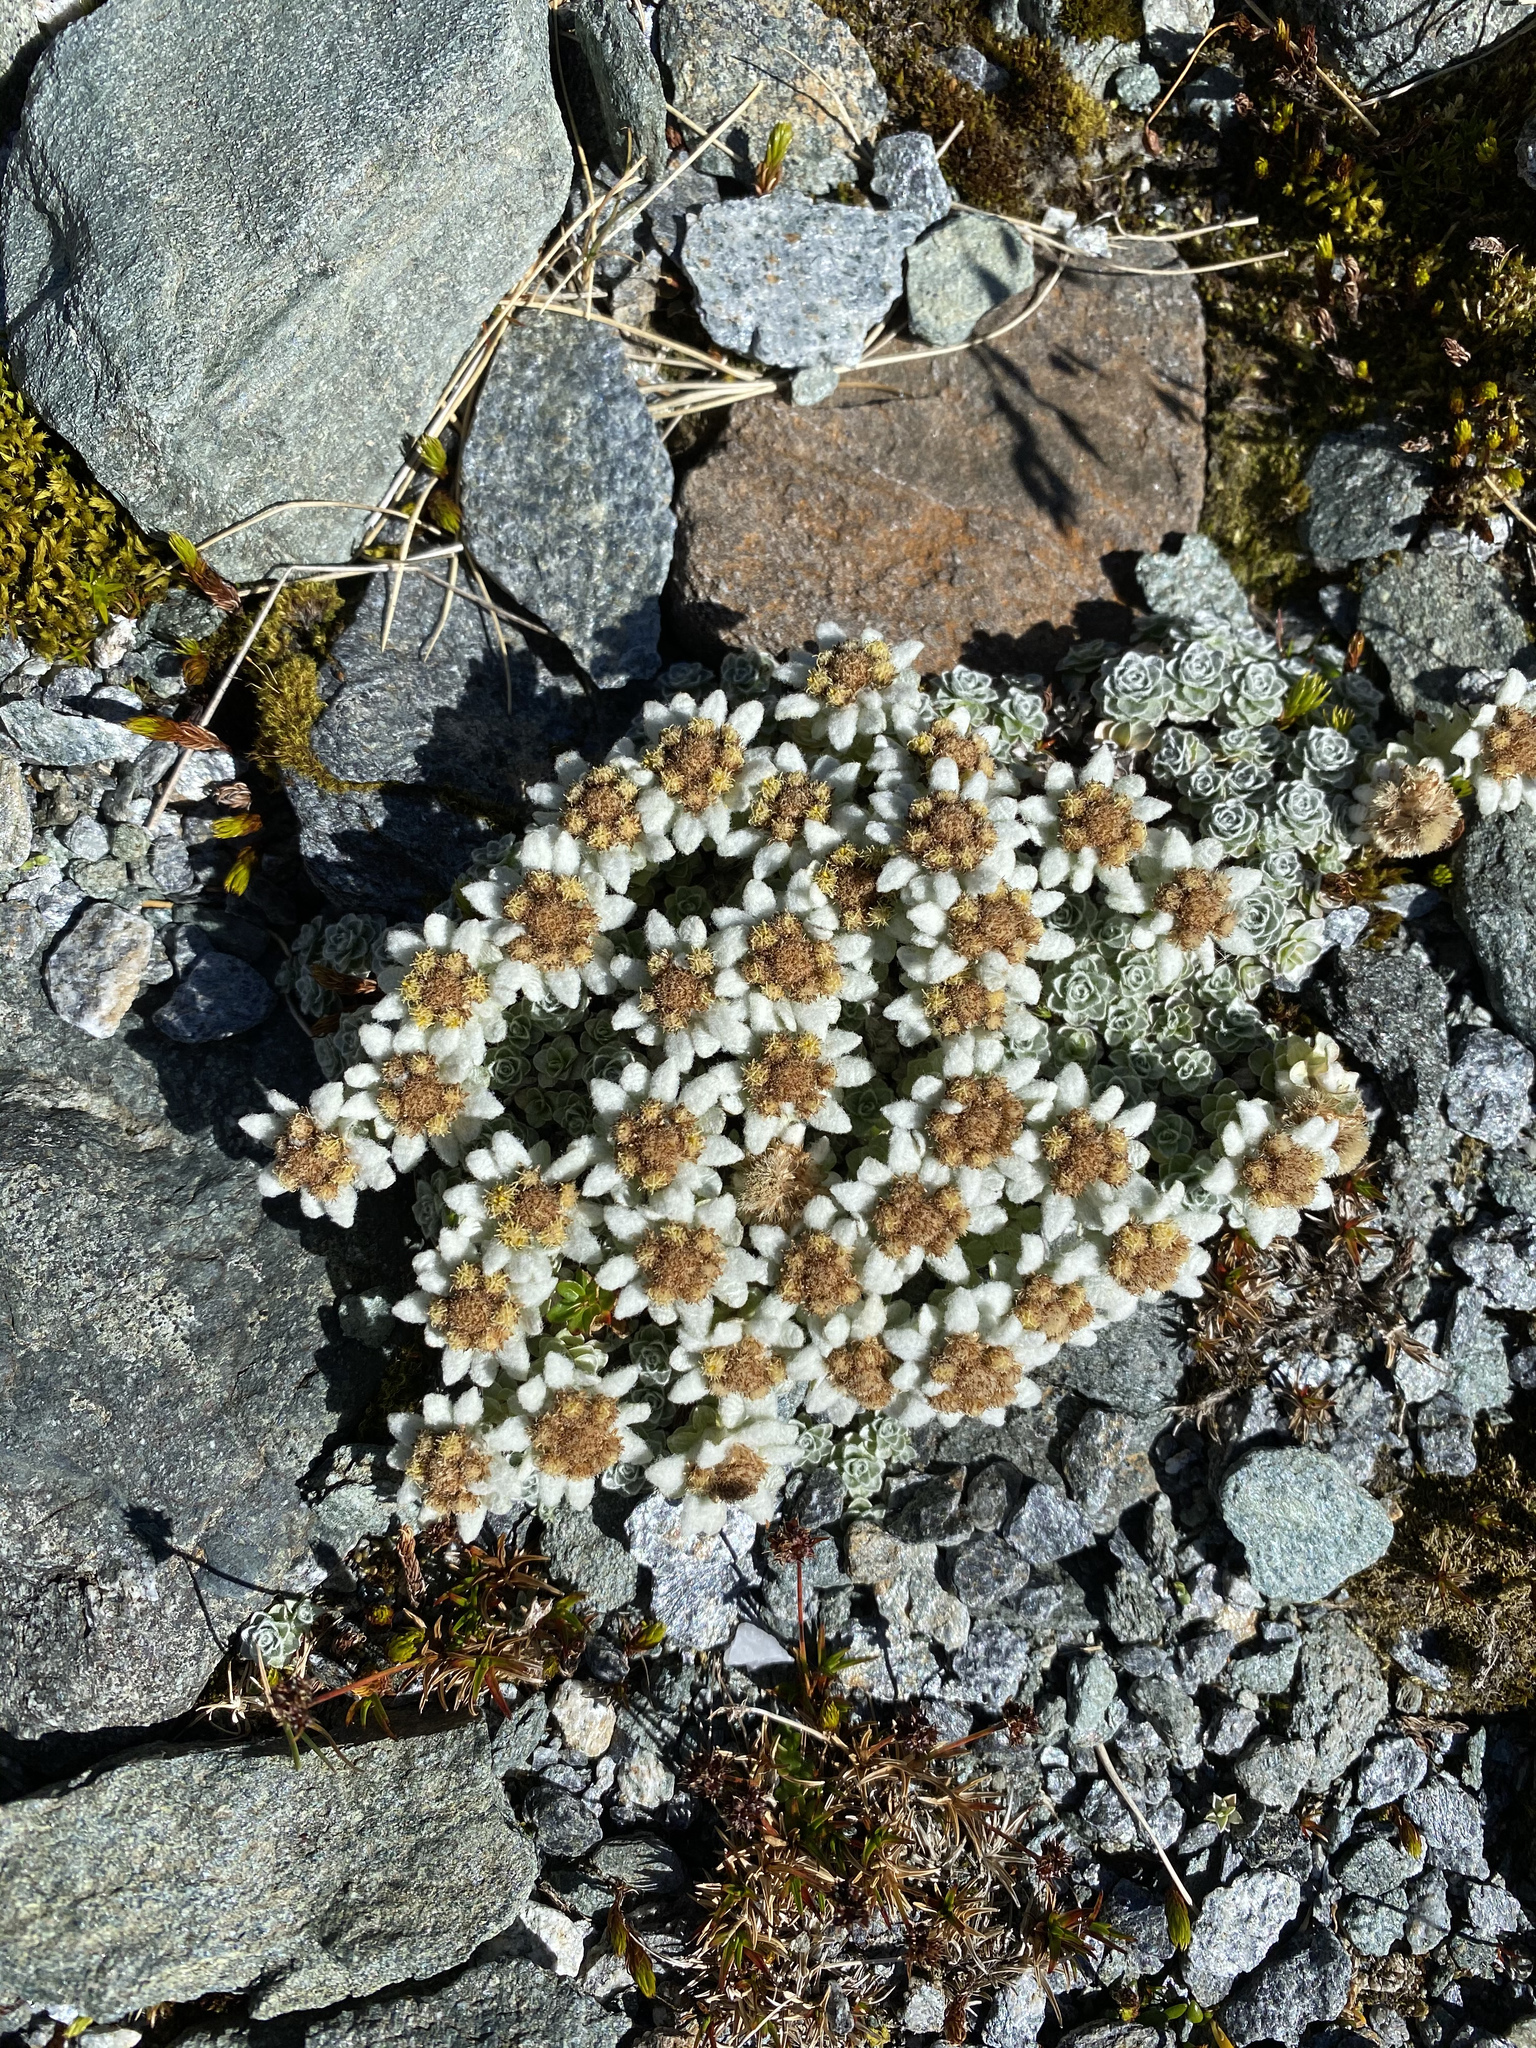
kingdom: Plantae
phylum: Tracheophyta
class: Magnoliopsida
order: Asterales
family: Asteraceae
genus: Leucogenes
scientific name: Leucogenes grandiceps
